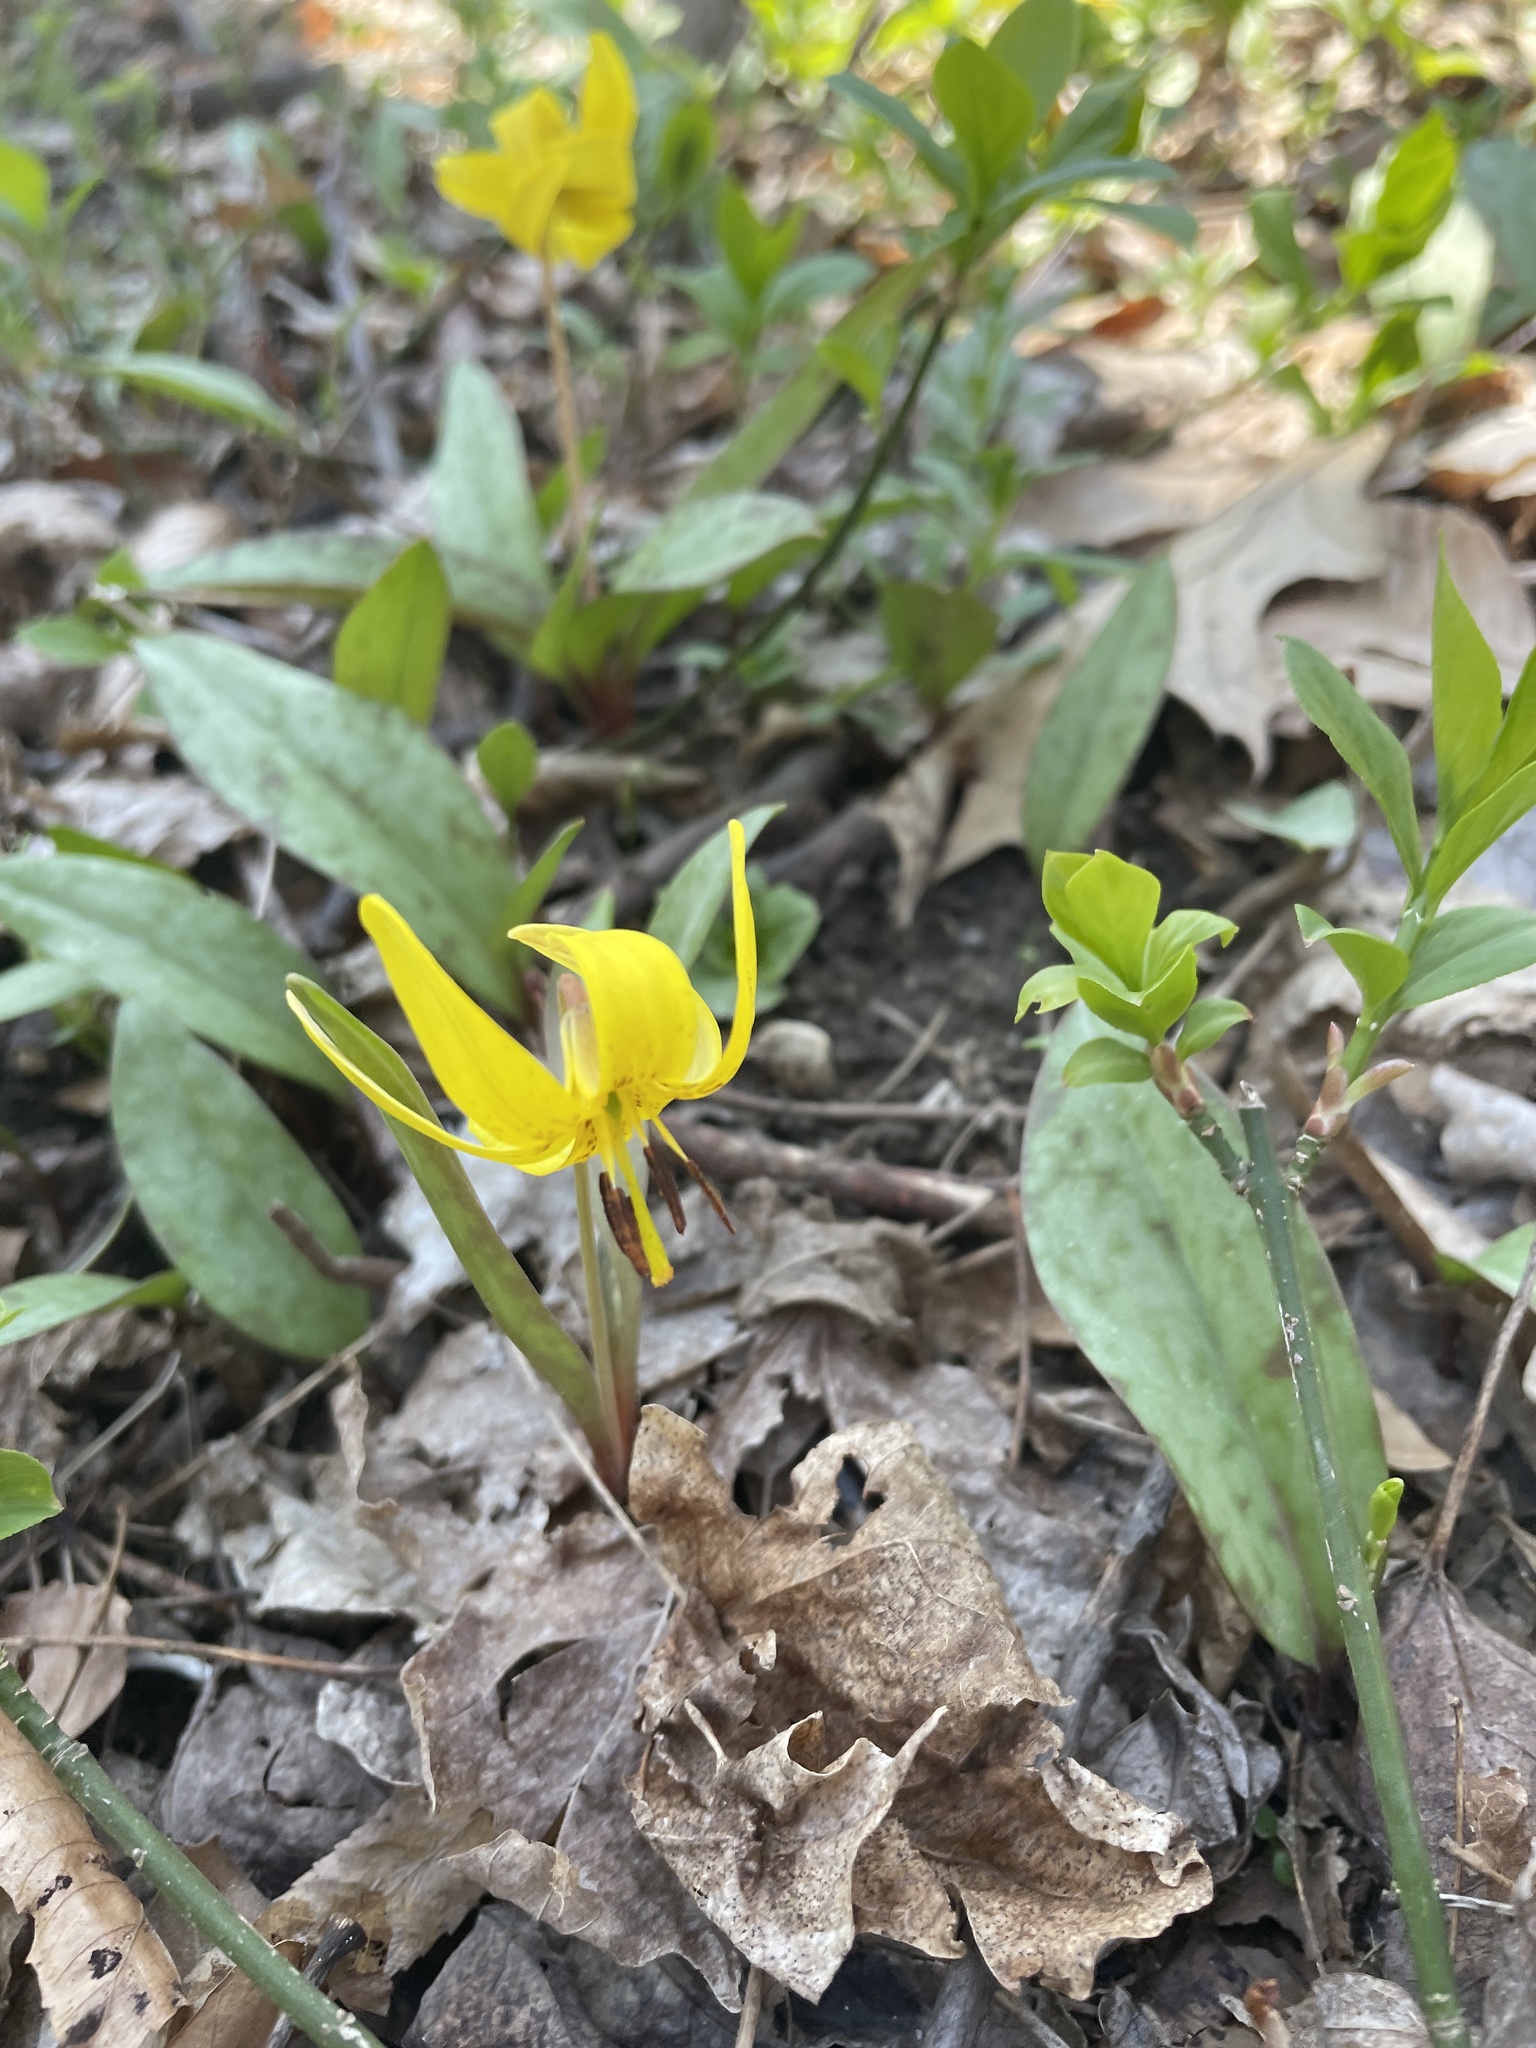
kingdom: Plantae
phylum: Tracheophyta
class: Liliopsida
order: Liliales
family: Liliaceae
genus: Erythronium
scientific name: Erythronium americanum
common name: Yellow adder's-tongue
